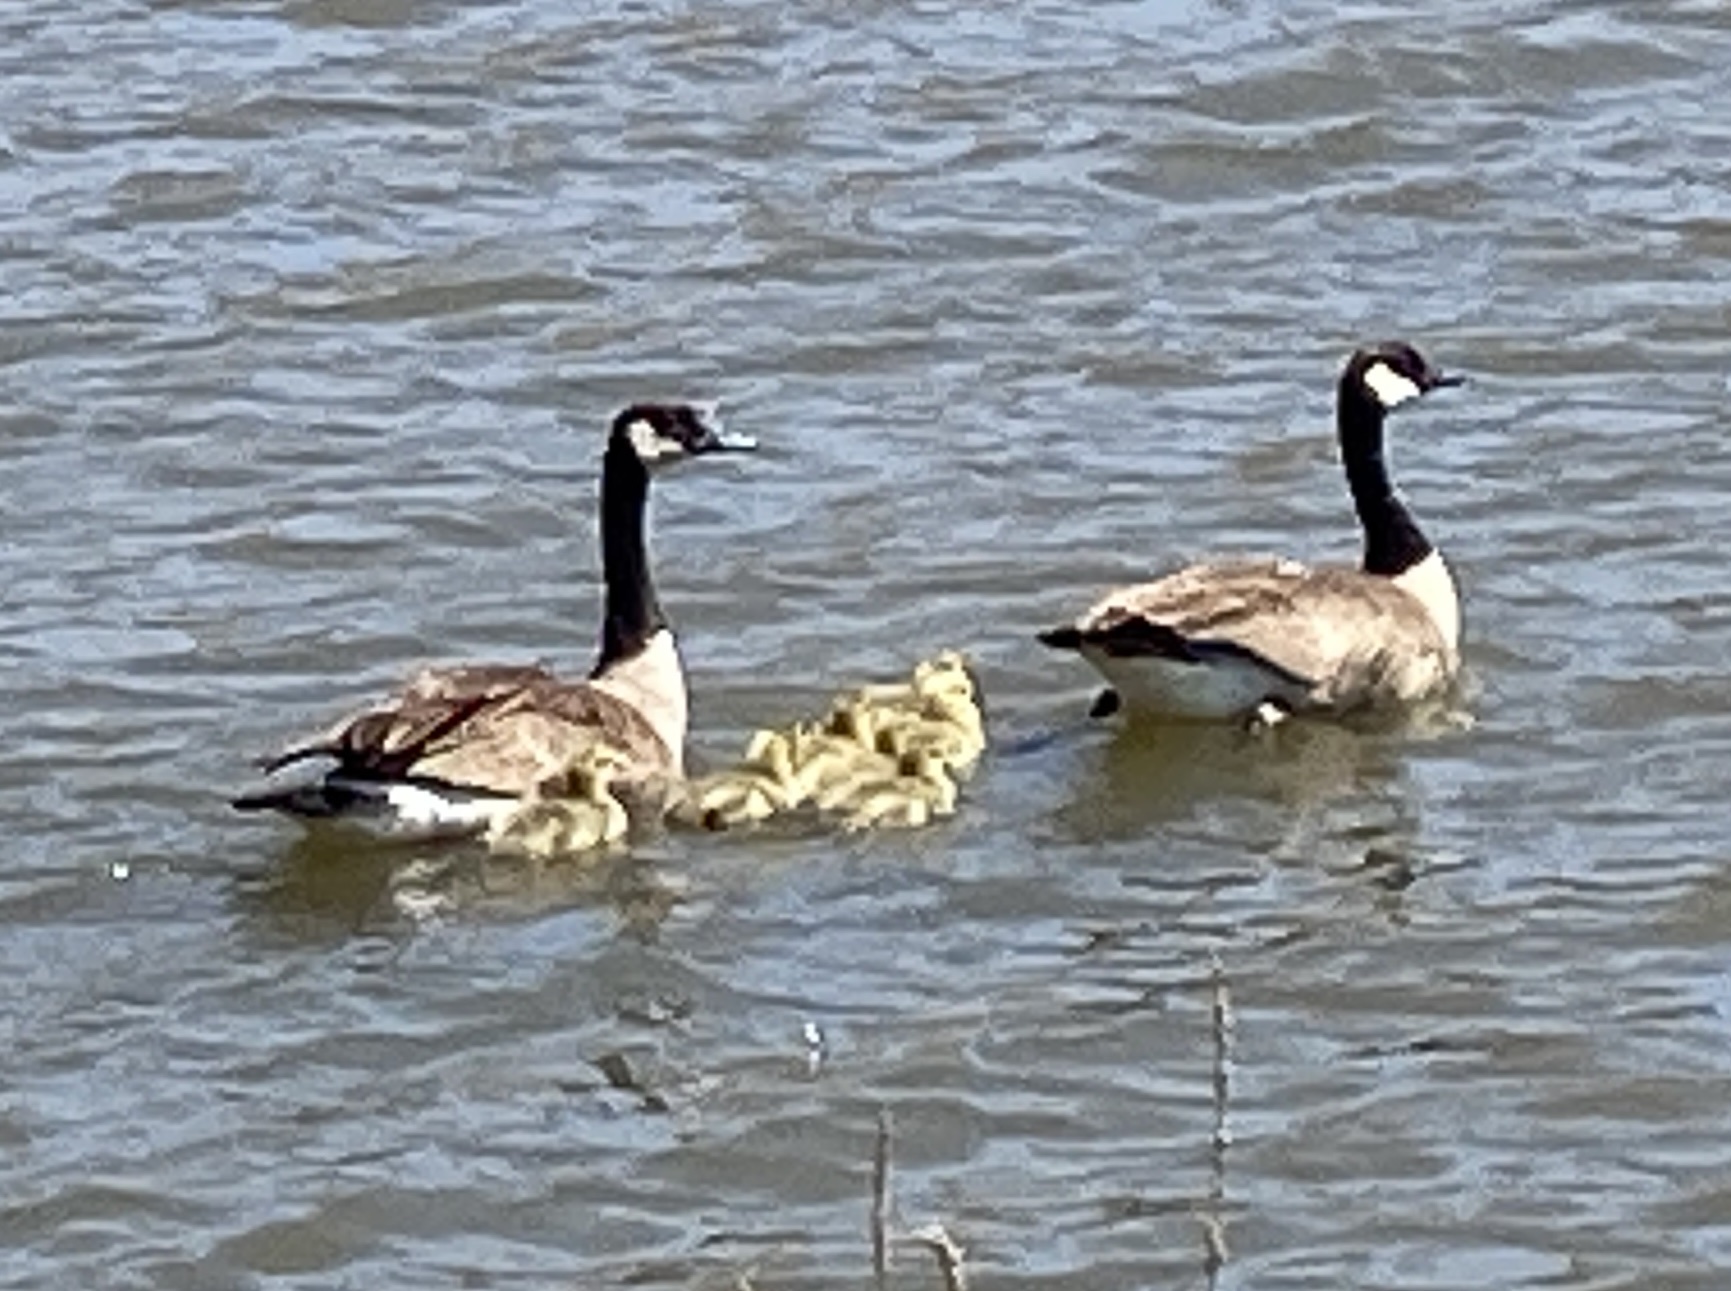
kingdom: Animalia
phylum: Chordata
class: Aves
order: Anseriformes
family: Anatidae
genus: Branta
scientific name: Branta canadensis
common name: Canada goose
